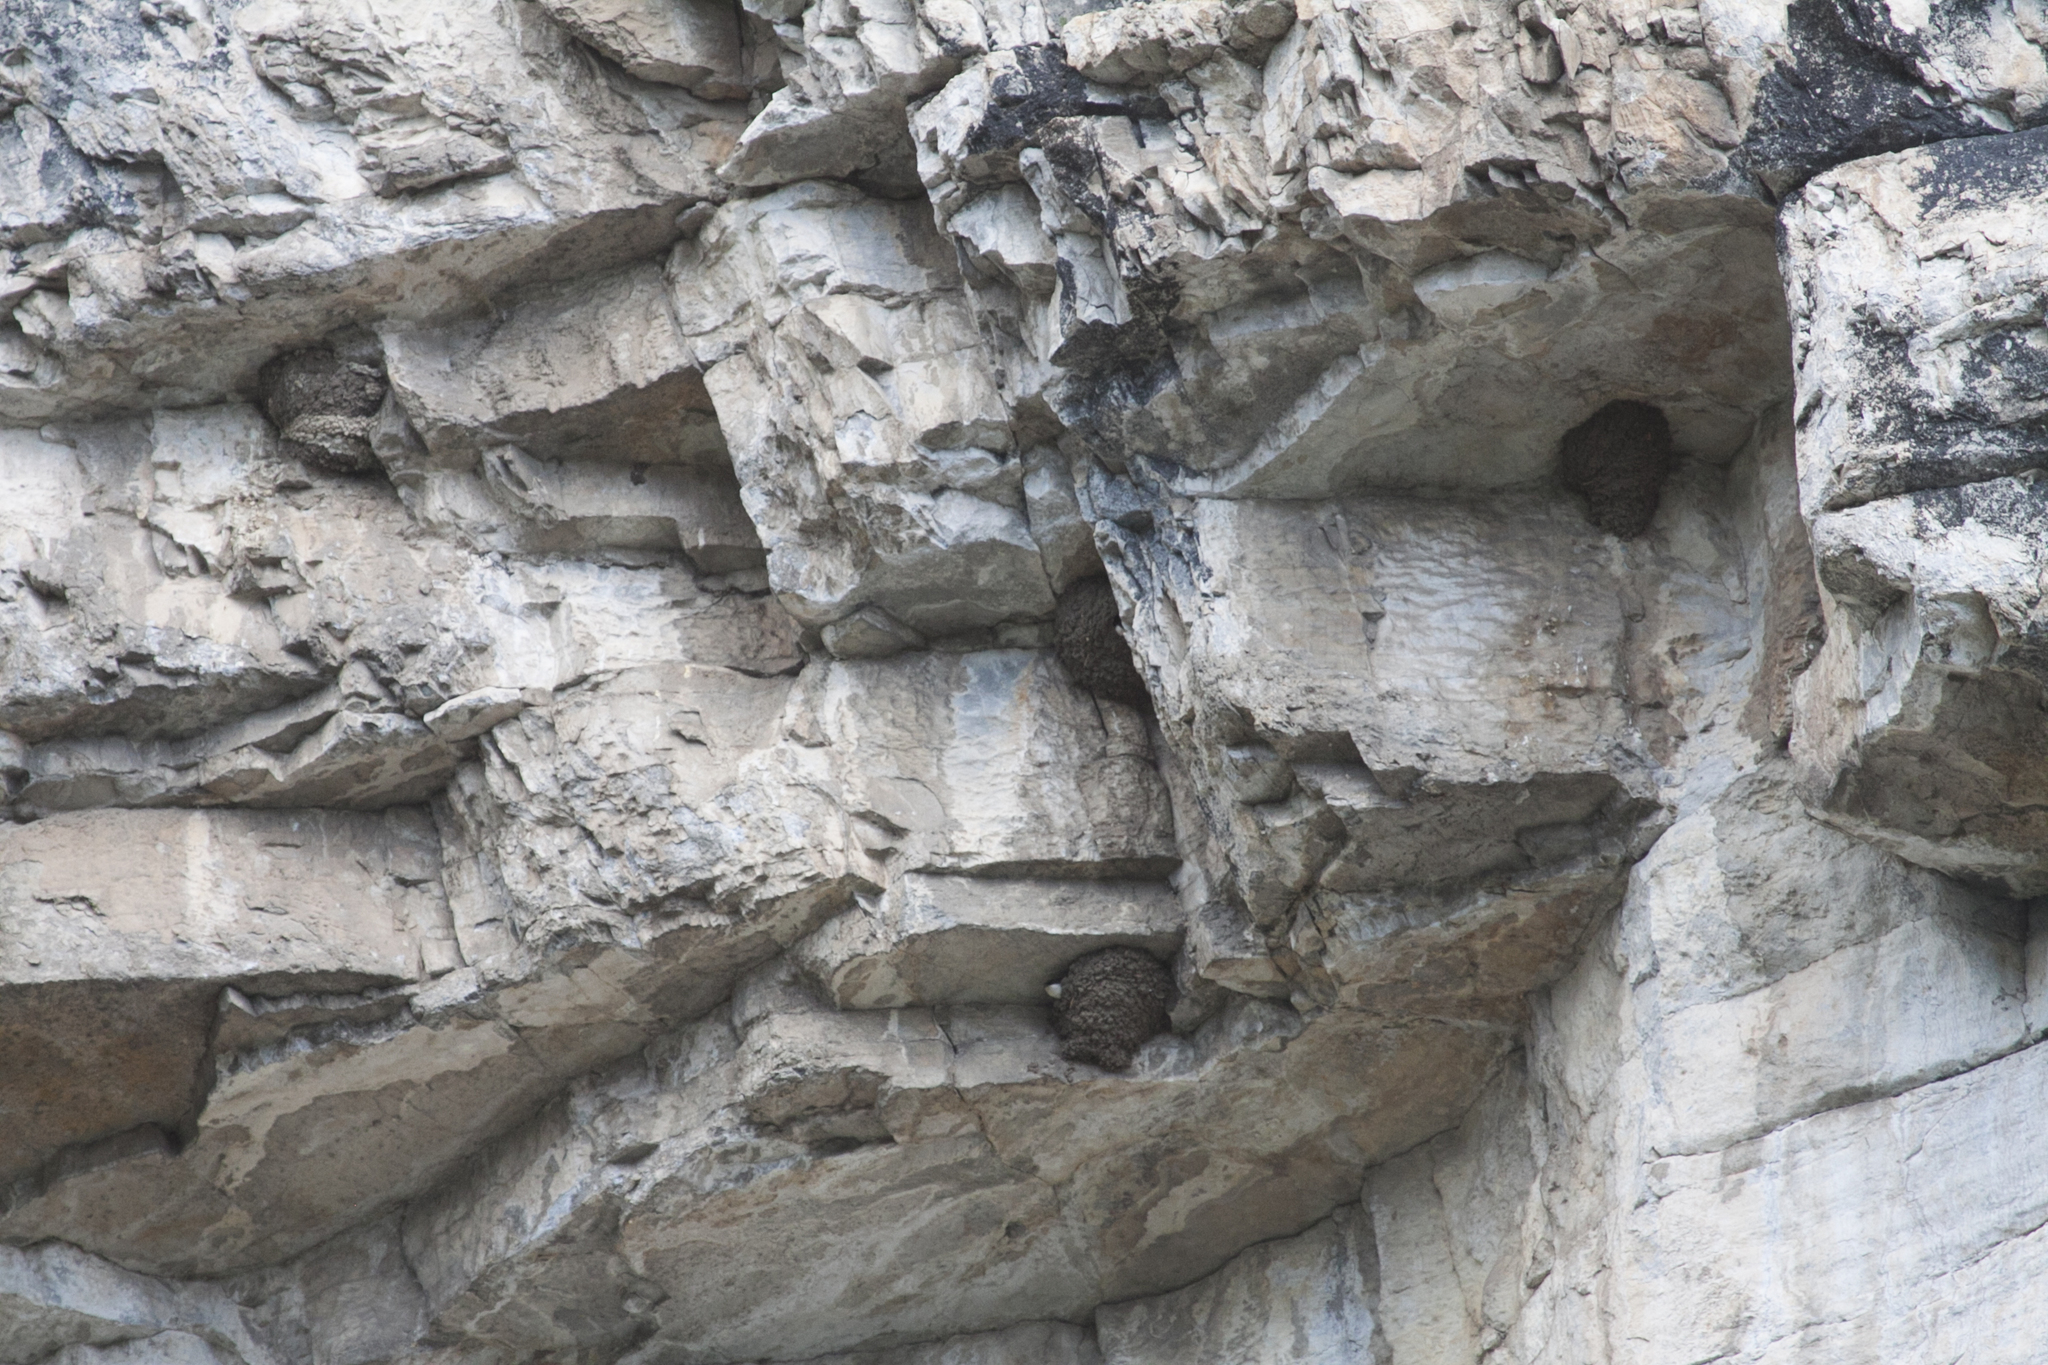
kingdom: Animalia
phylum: Chordata
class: Aves
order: Passeriformes
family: Hirundinidae
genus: Delichon
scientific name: Delichon urbicum
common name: Common house martin
